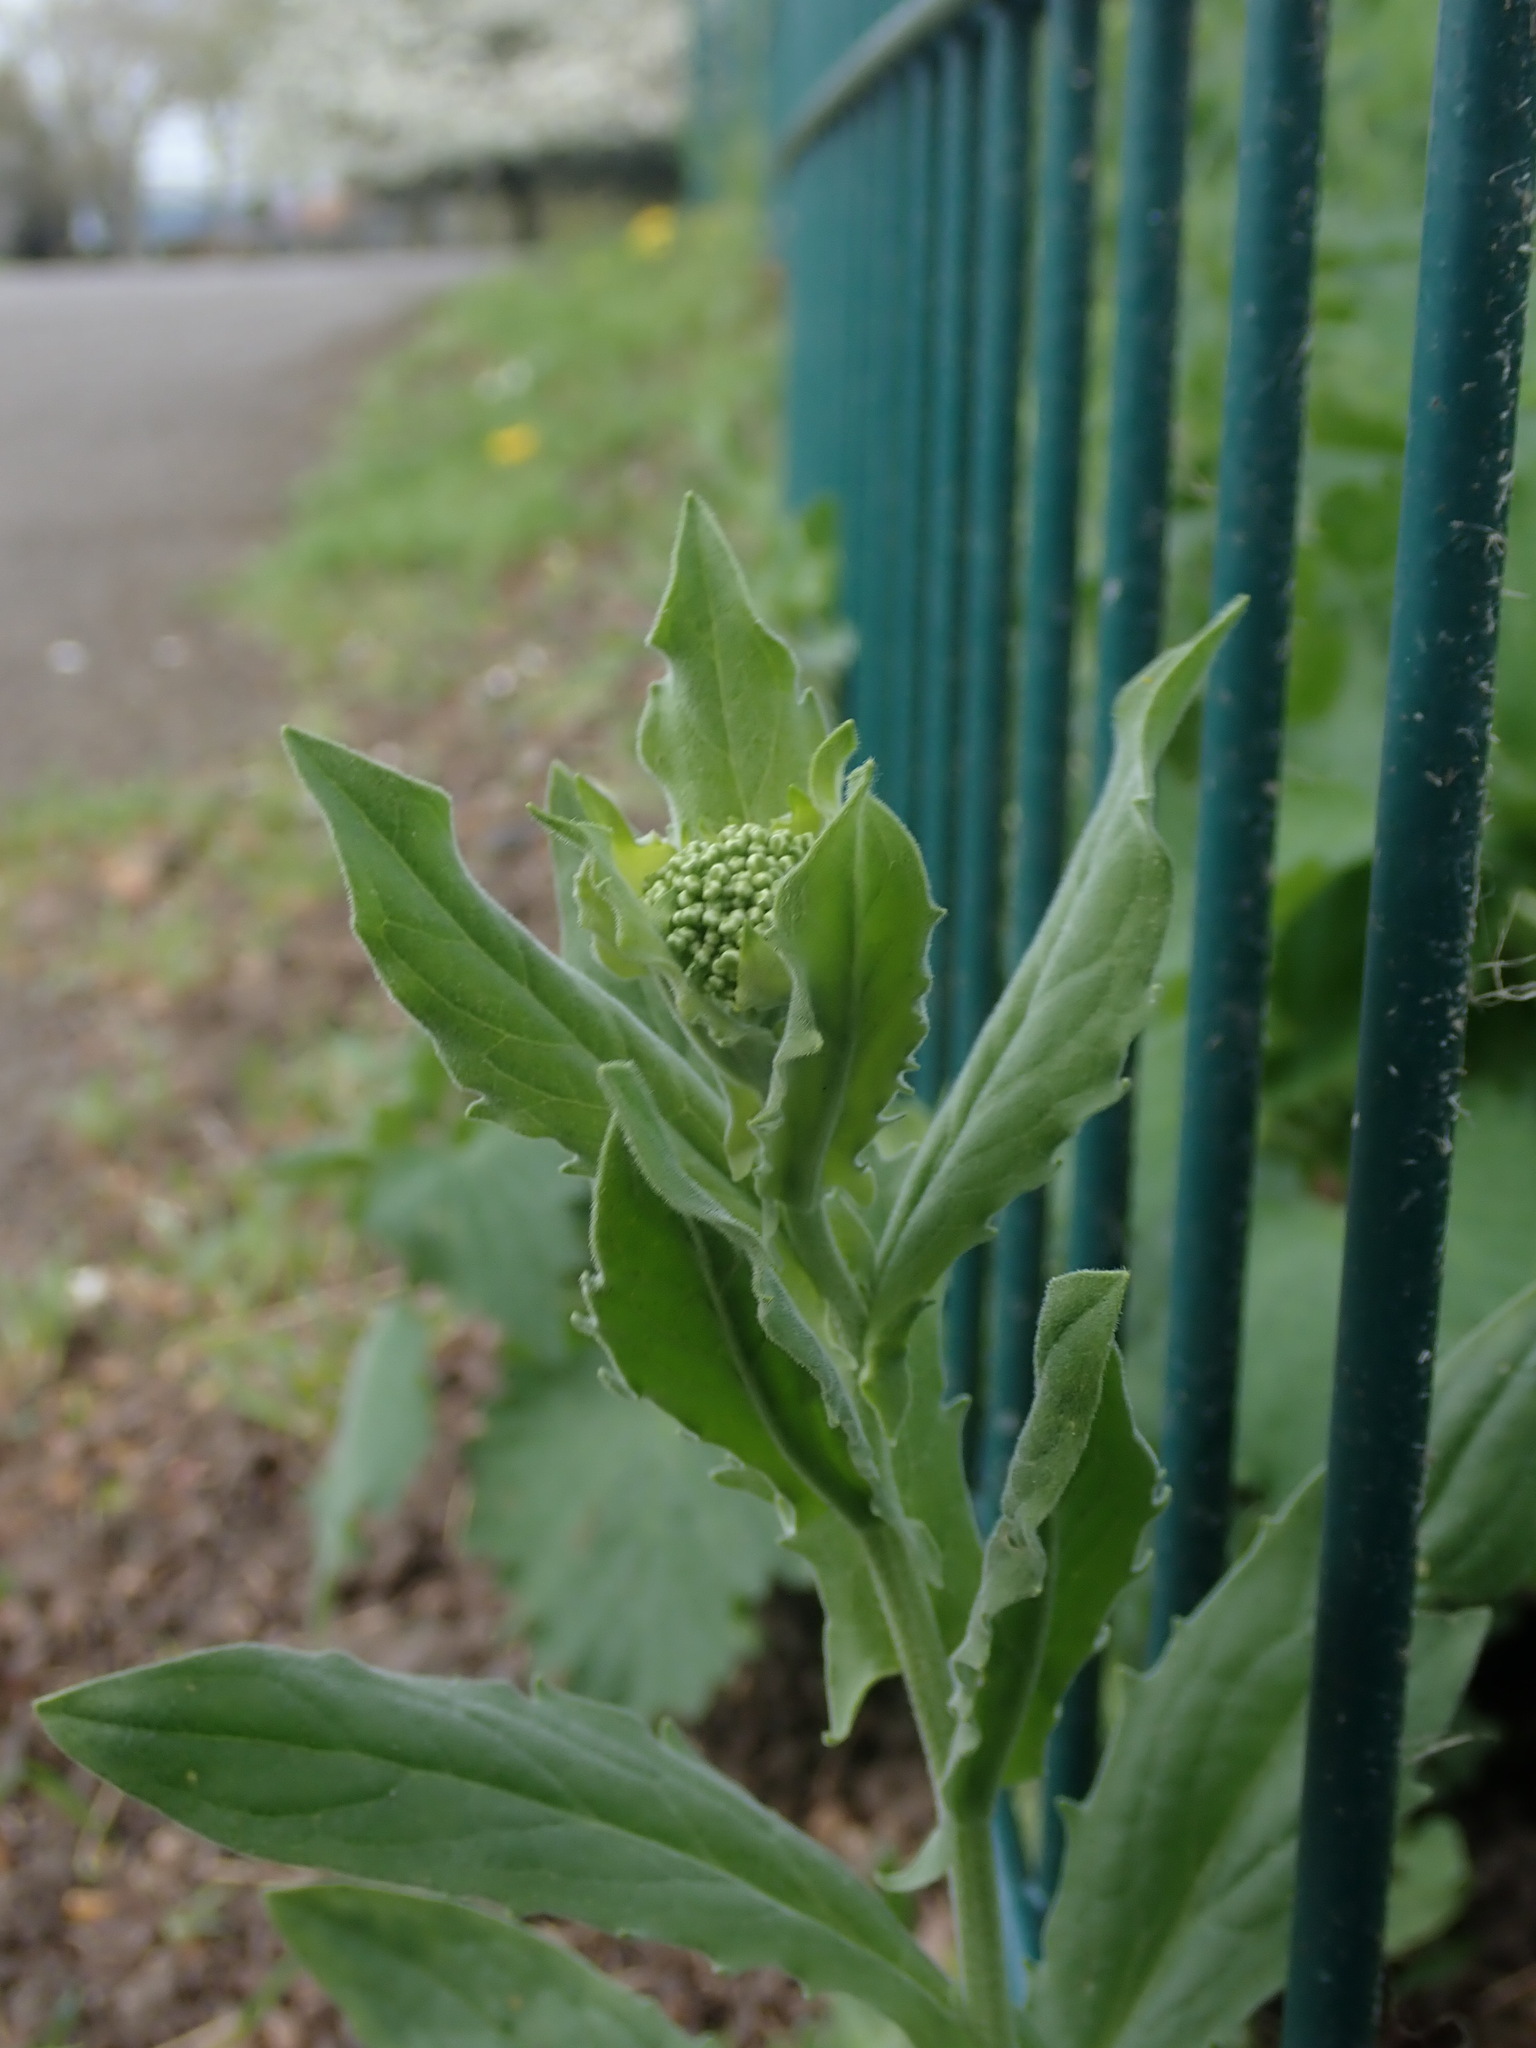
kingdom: Plantae
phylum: Tracheophyta
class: Magnoliopsida
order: Brassicales
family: Brassicaceae
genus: Lepidium
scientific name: Lepidium draba
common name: Hoary cress
